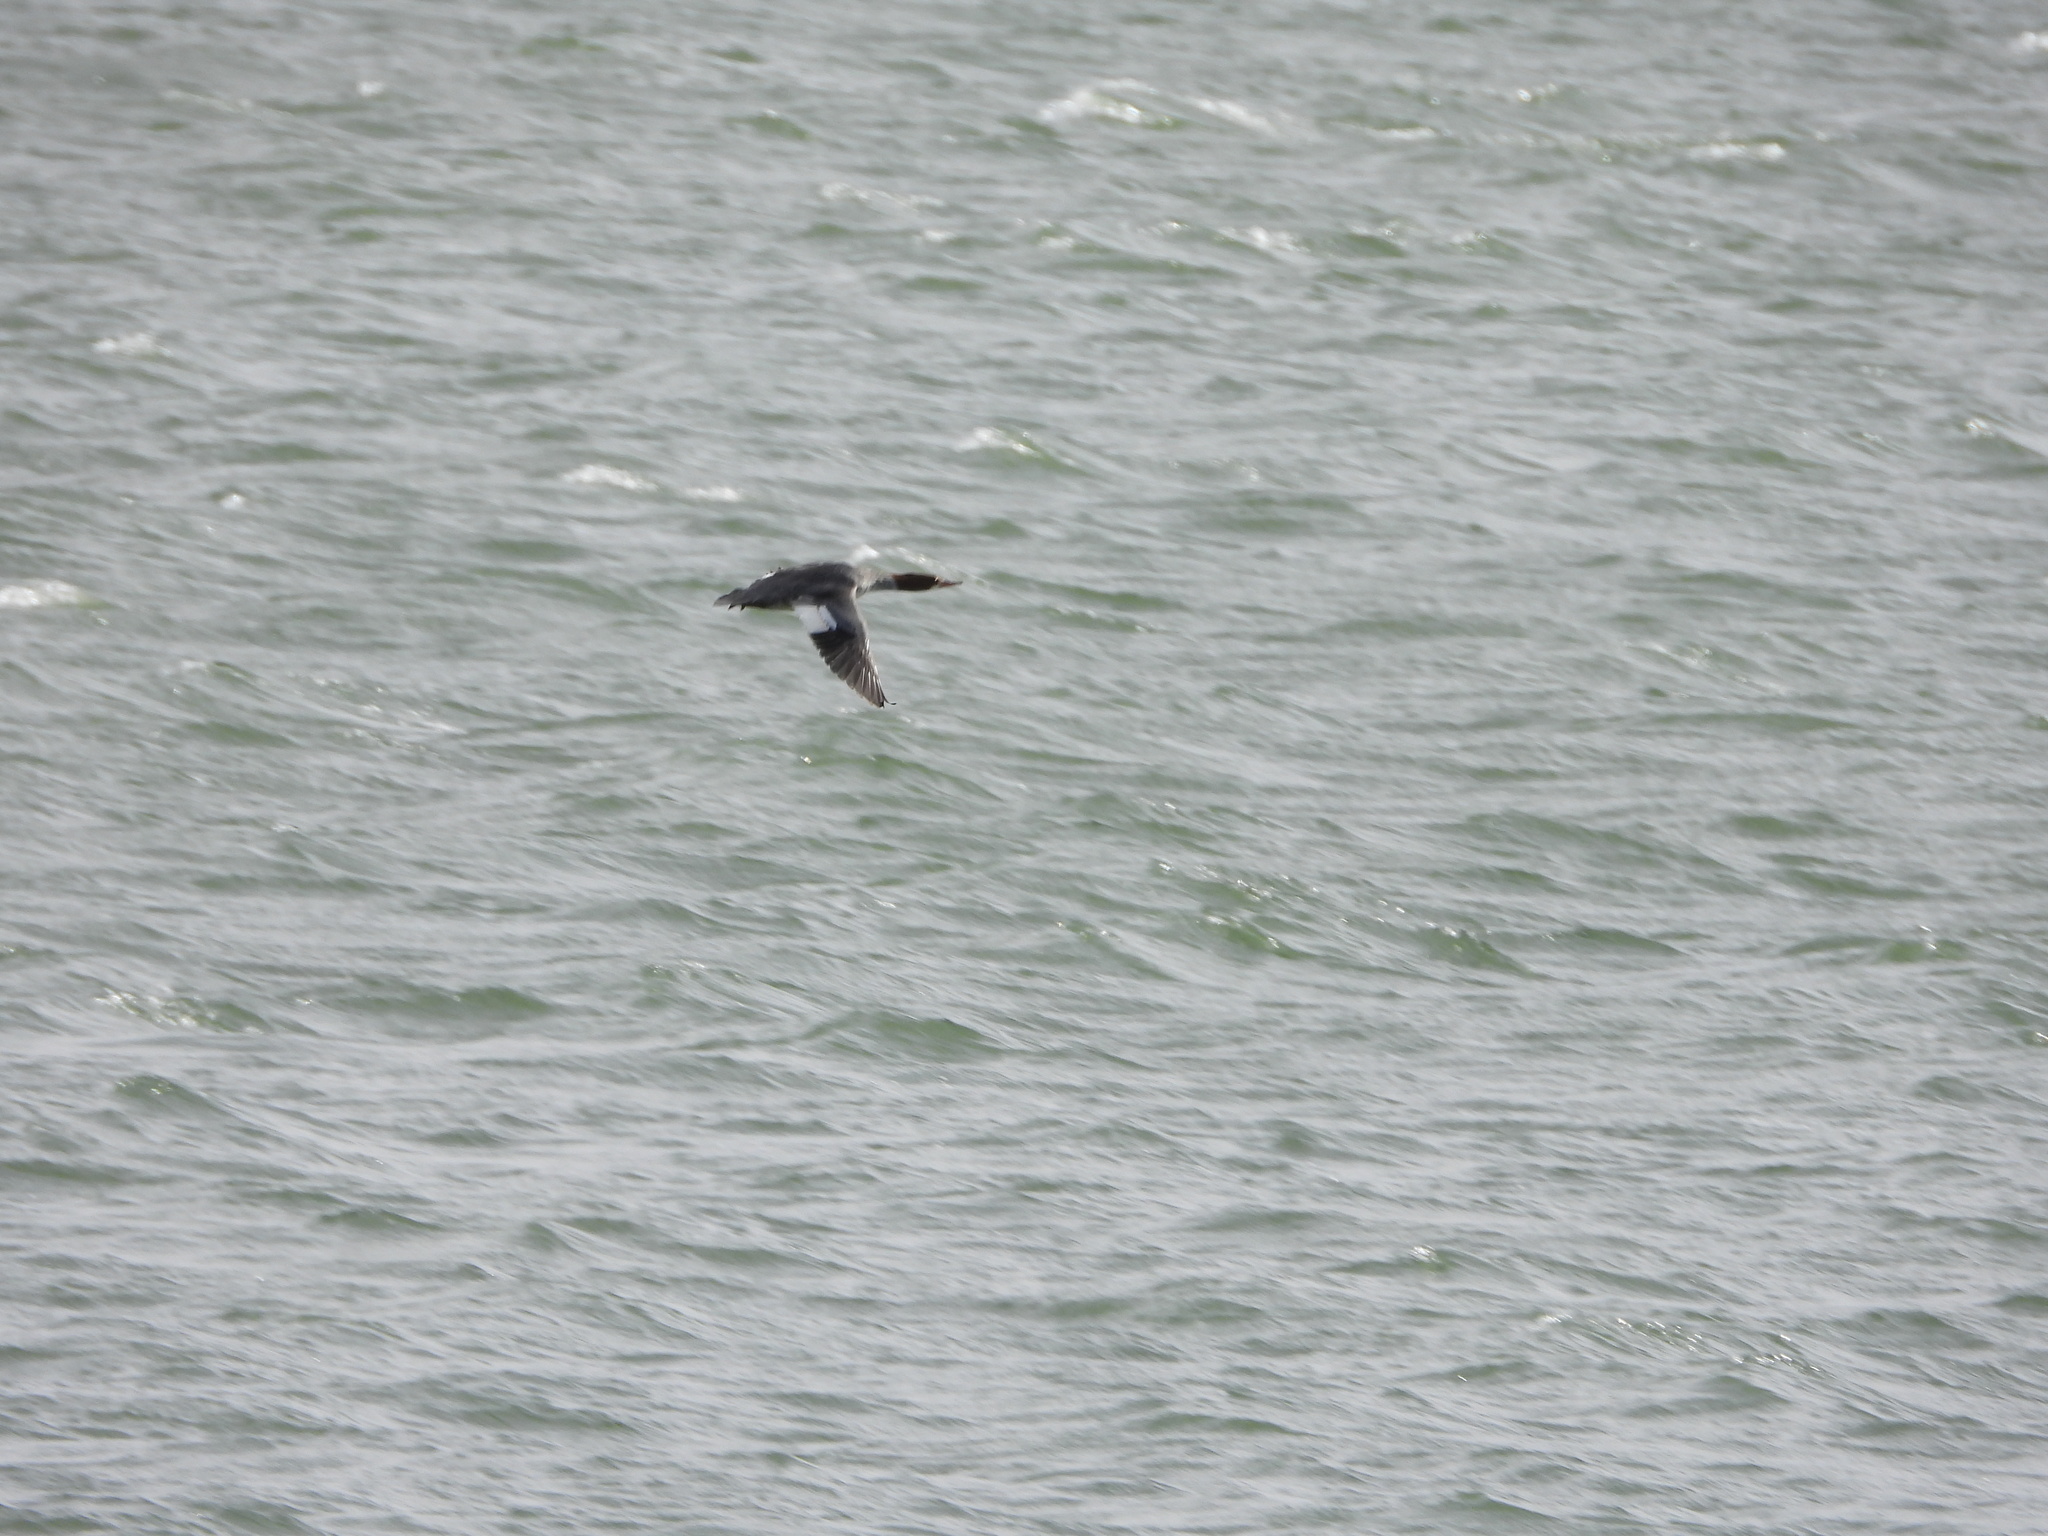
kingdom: Animalia
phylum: Chordata
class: Aves
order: Anseriformes
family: Anatidae
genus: Mergus
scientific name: Mergus merganser
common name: Common merganser
